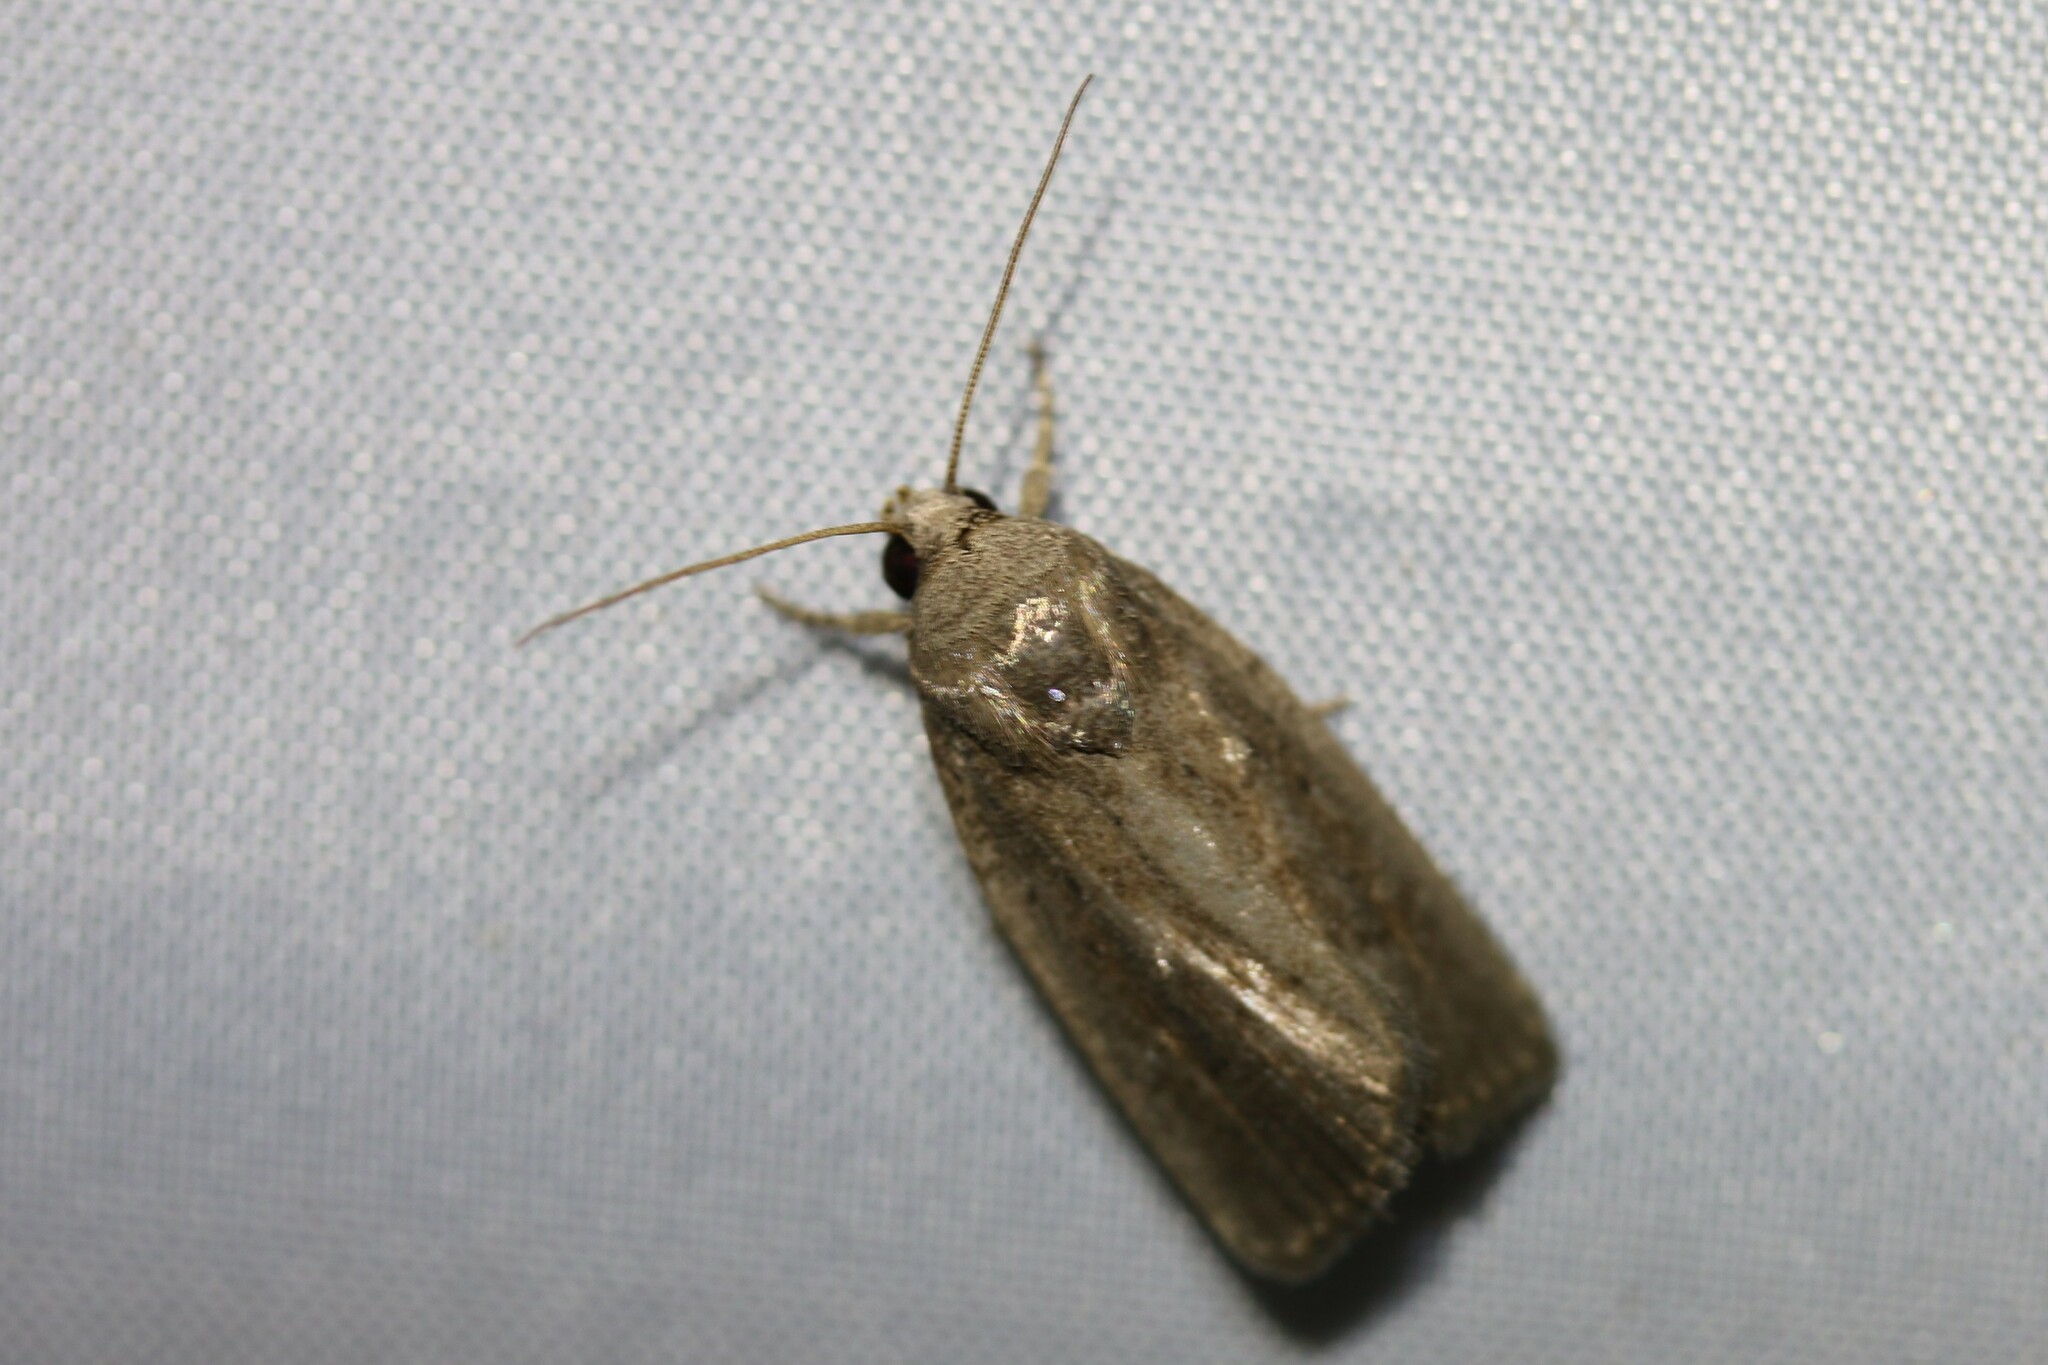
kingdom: Animalia
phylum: Arthropoda
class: Insecta
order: Lepidoptera
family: Noctuidae
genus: Athetis
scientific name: Athetis hospes
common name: Porter's rustic
